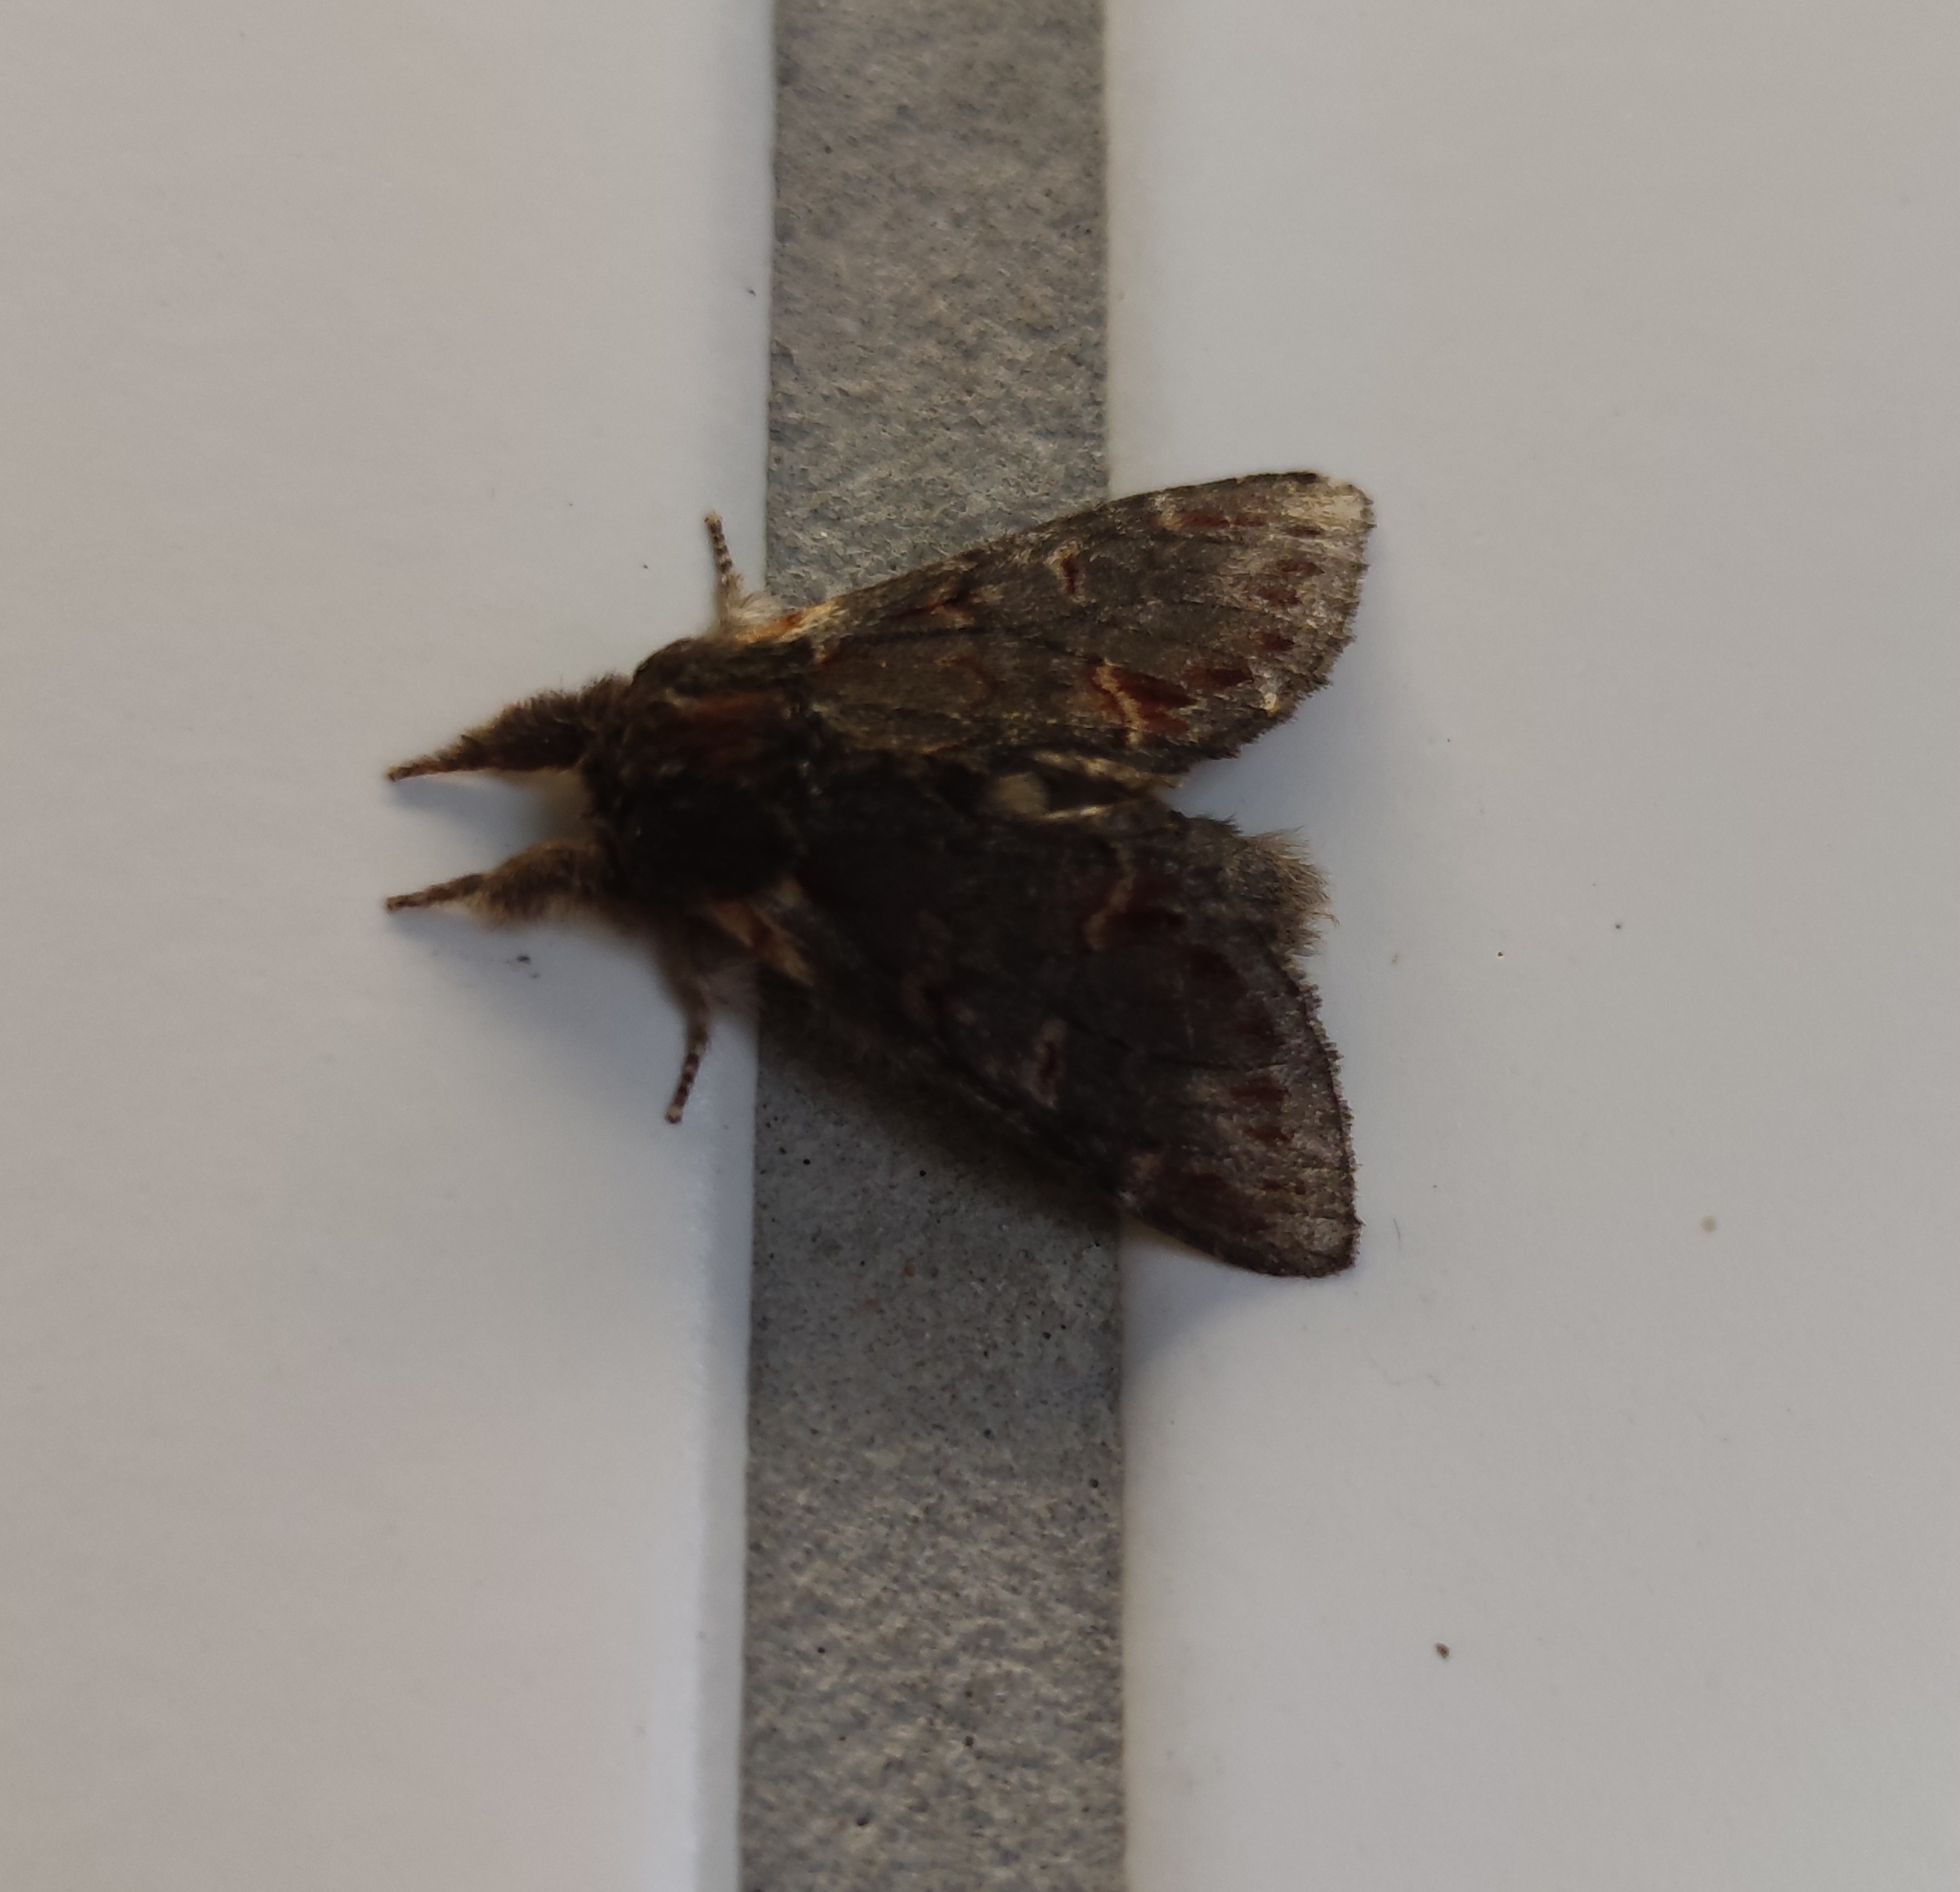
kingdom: Animalia
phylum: Arthropoda
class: Insecta
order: Lepidoptera
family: Notodontidae
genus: Notodonta
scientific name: Notodonta dromedarius
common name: Iron prominent
